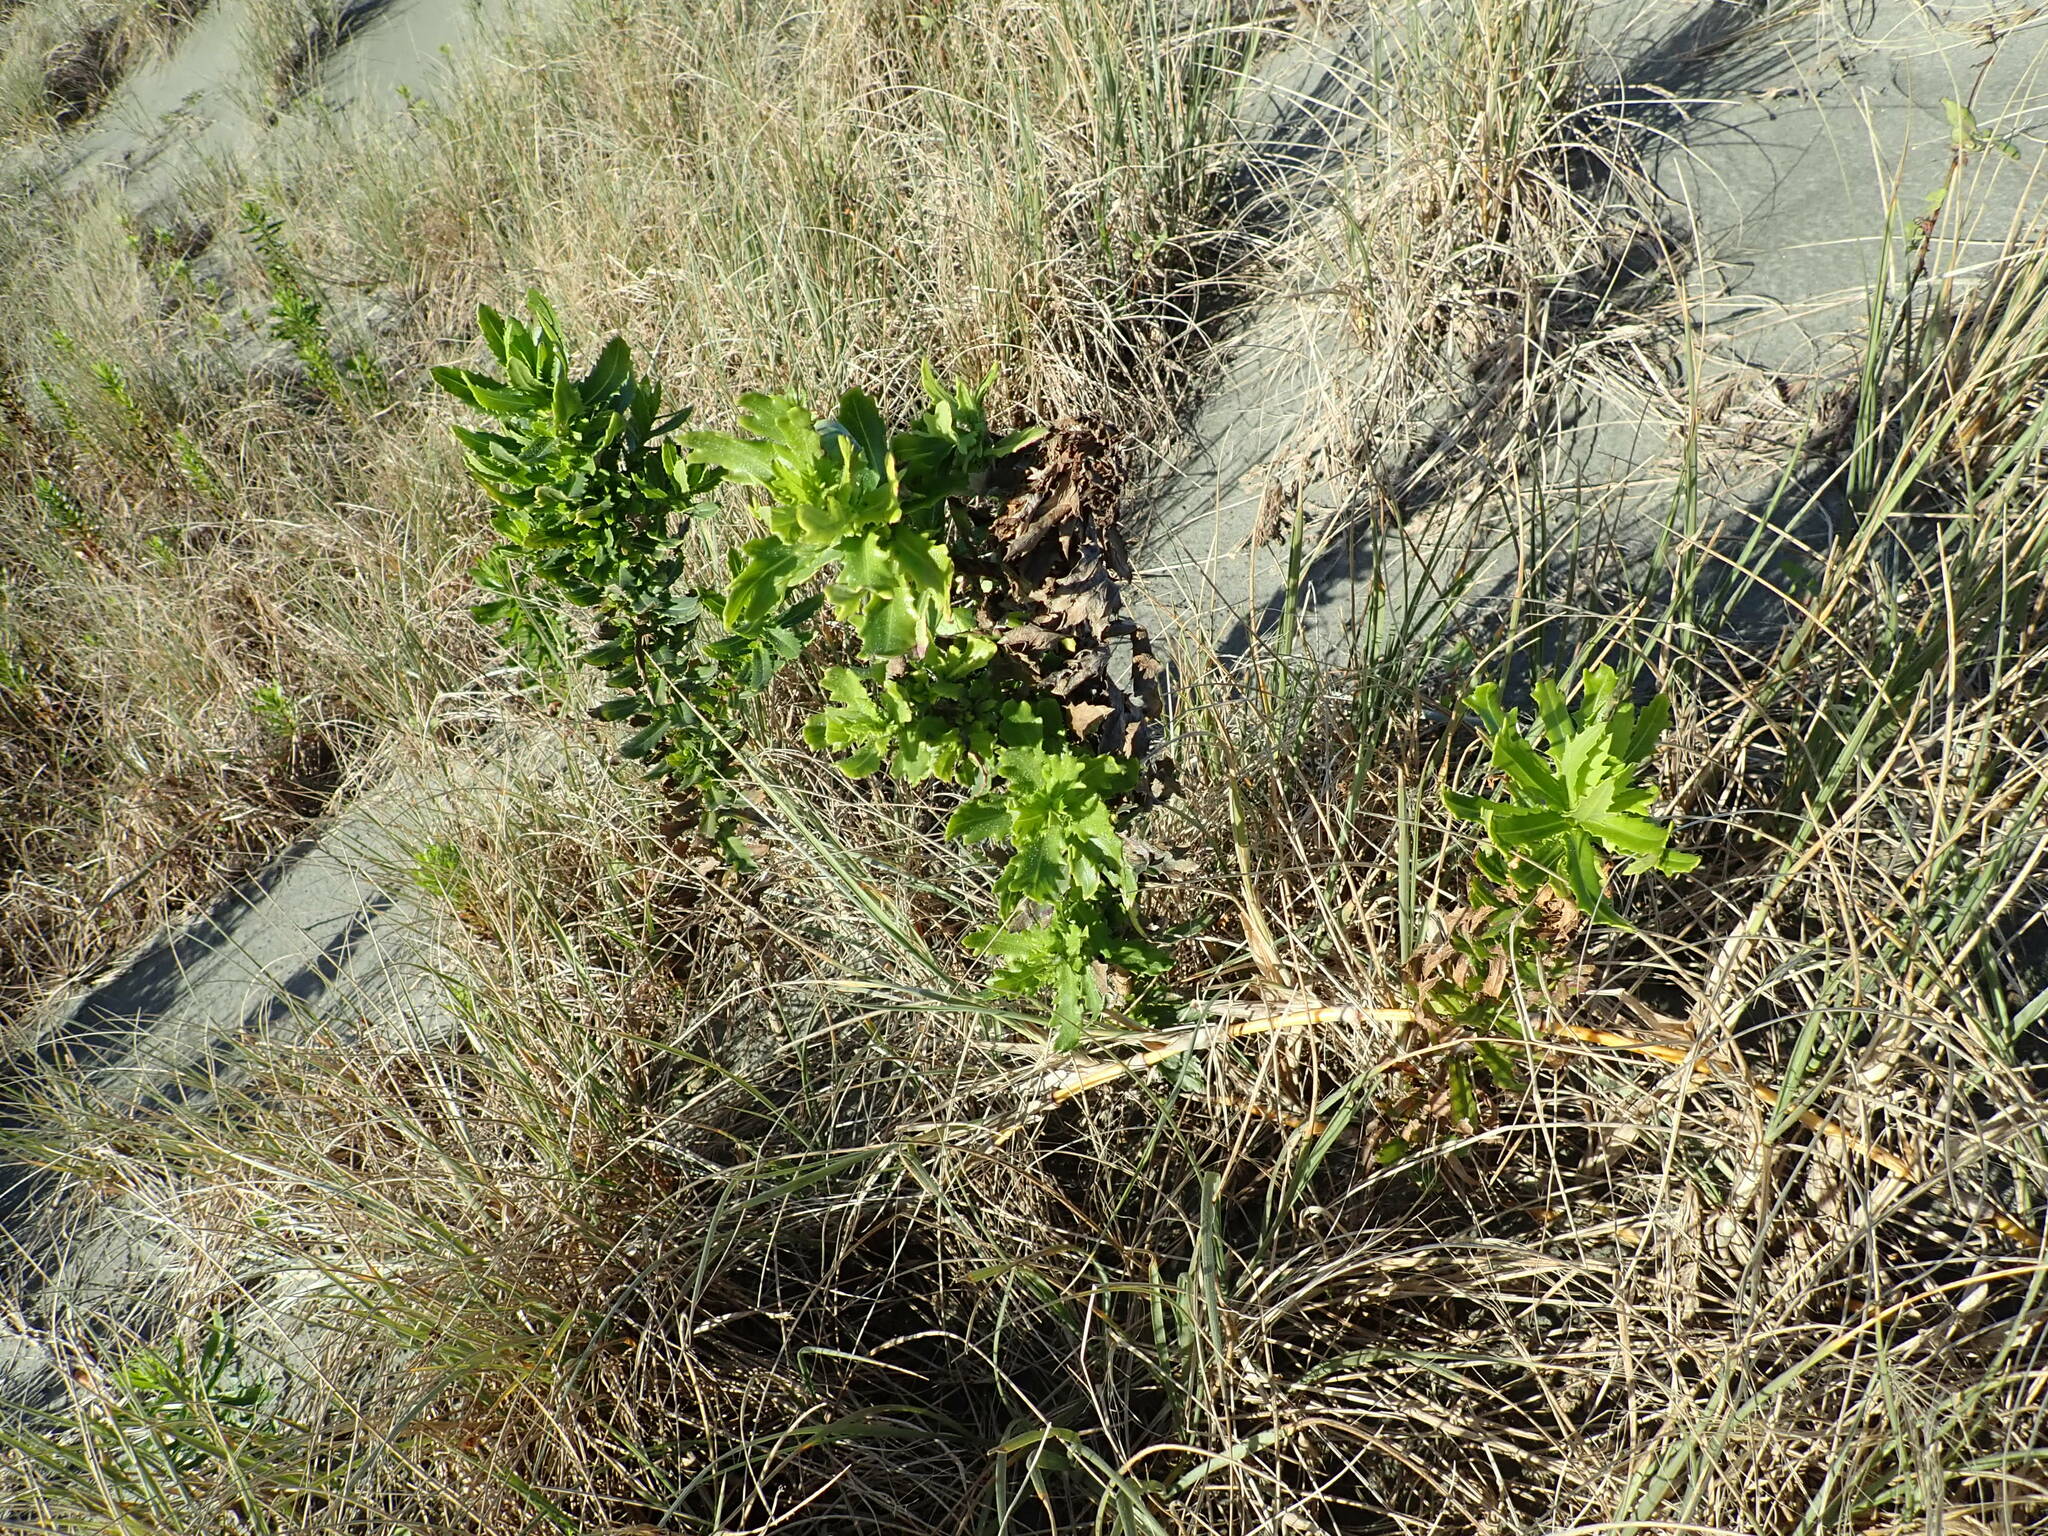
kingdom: Plantae
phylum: Tracheophyta
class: Magnoliopsida
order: Asterales
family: Asteraceae
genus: Senecio
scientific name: Senecio glastifolius
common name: Woad-leaved ragwort
